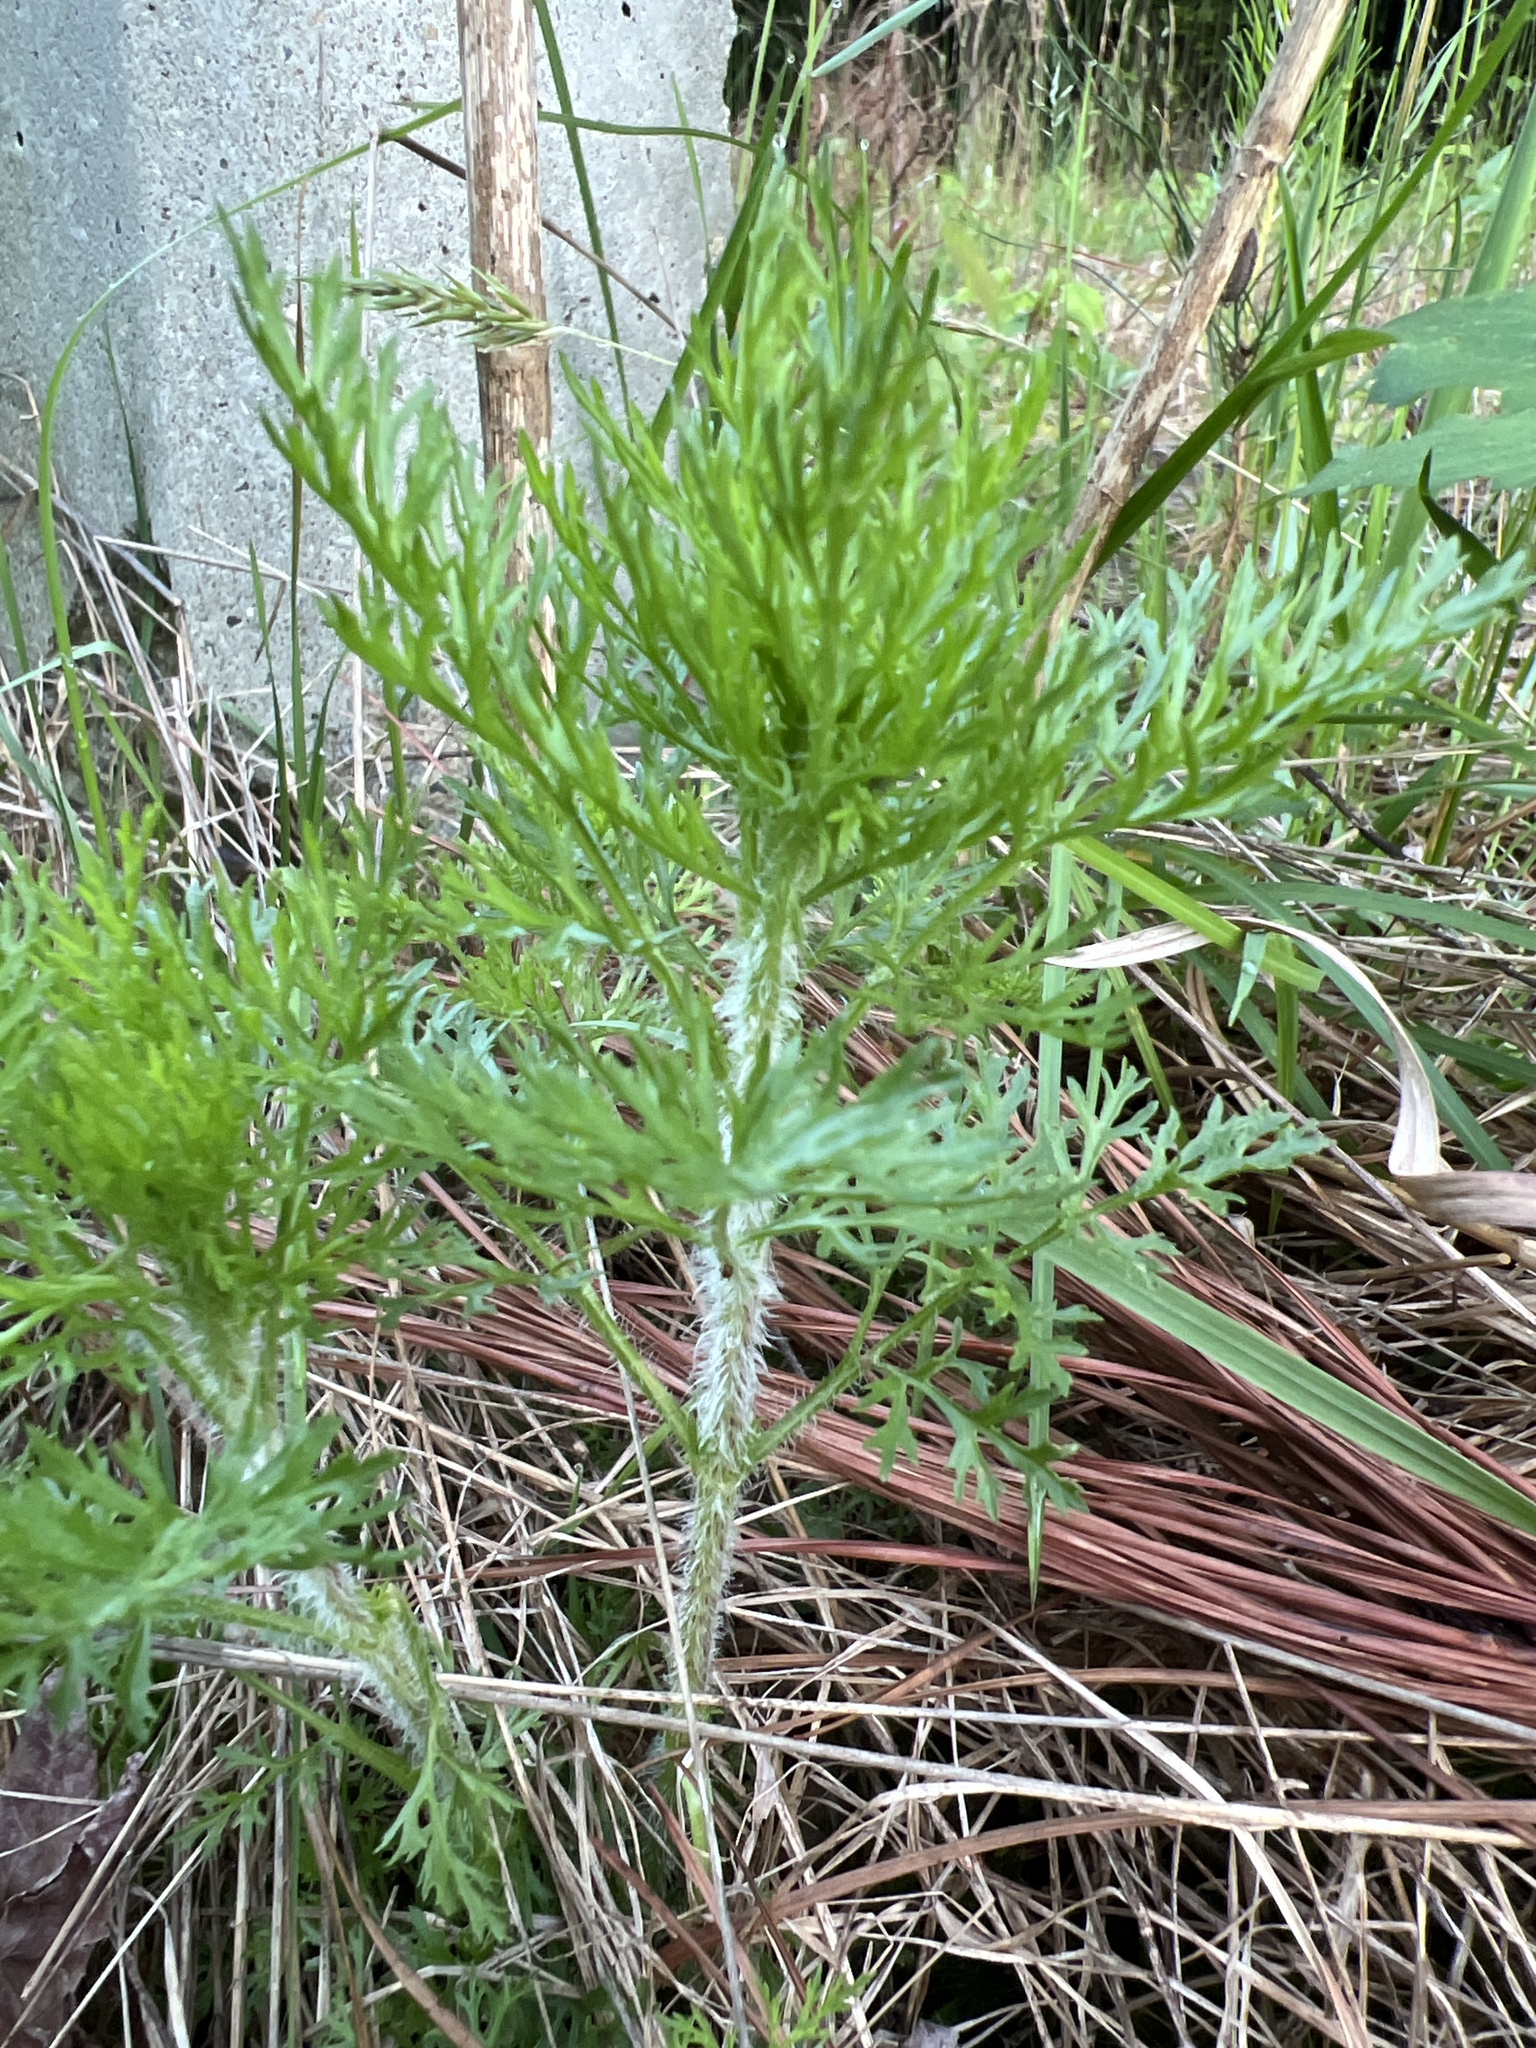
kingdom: Plantae
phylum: Tracheophyta
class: Magnoliopsida
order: Asterales
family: Asteraceae
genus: Eupatorium
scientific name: Eupatorium capillifolium
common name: Dog-fennel
